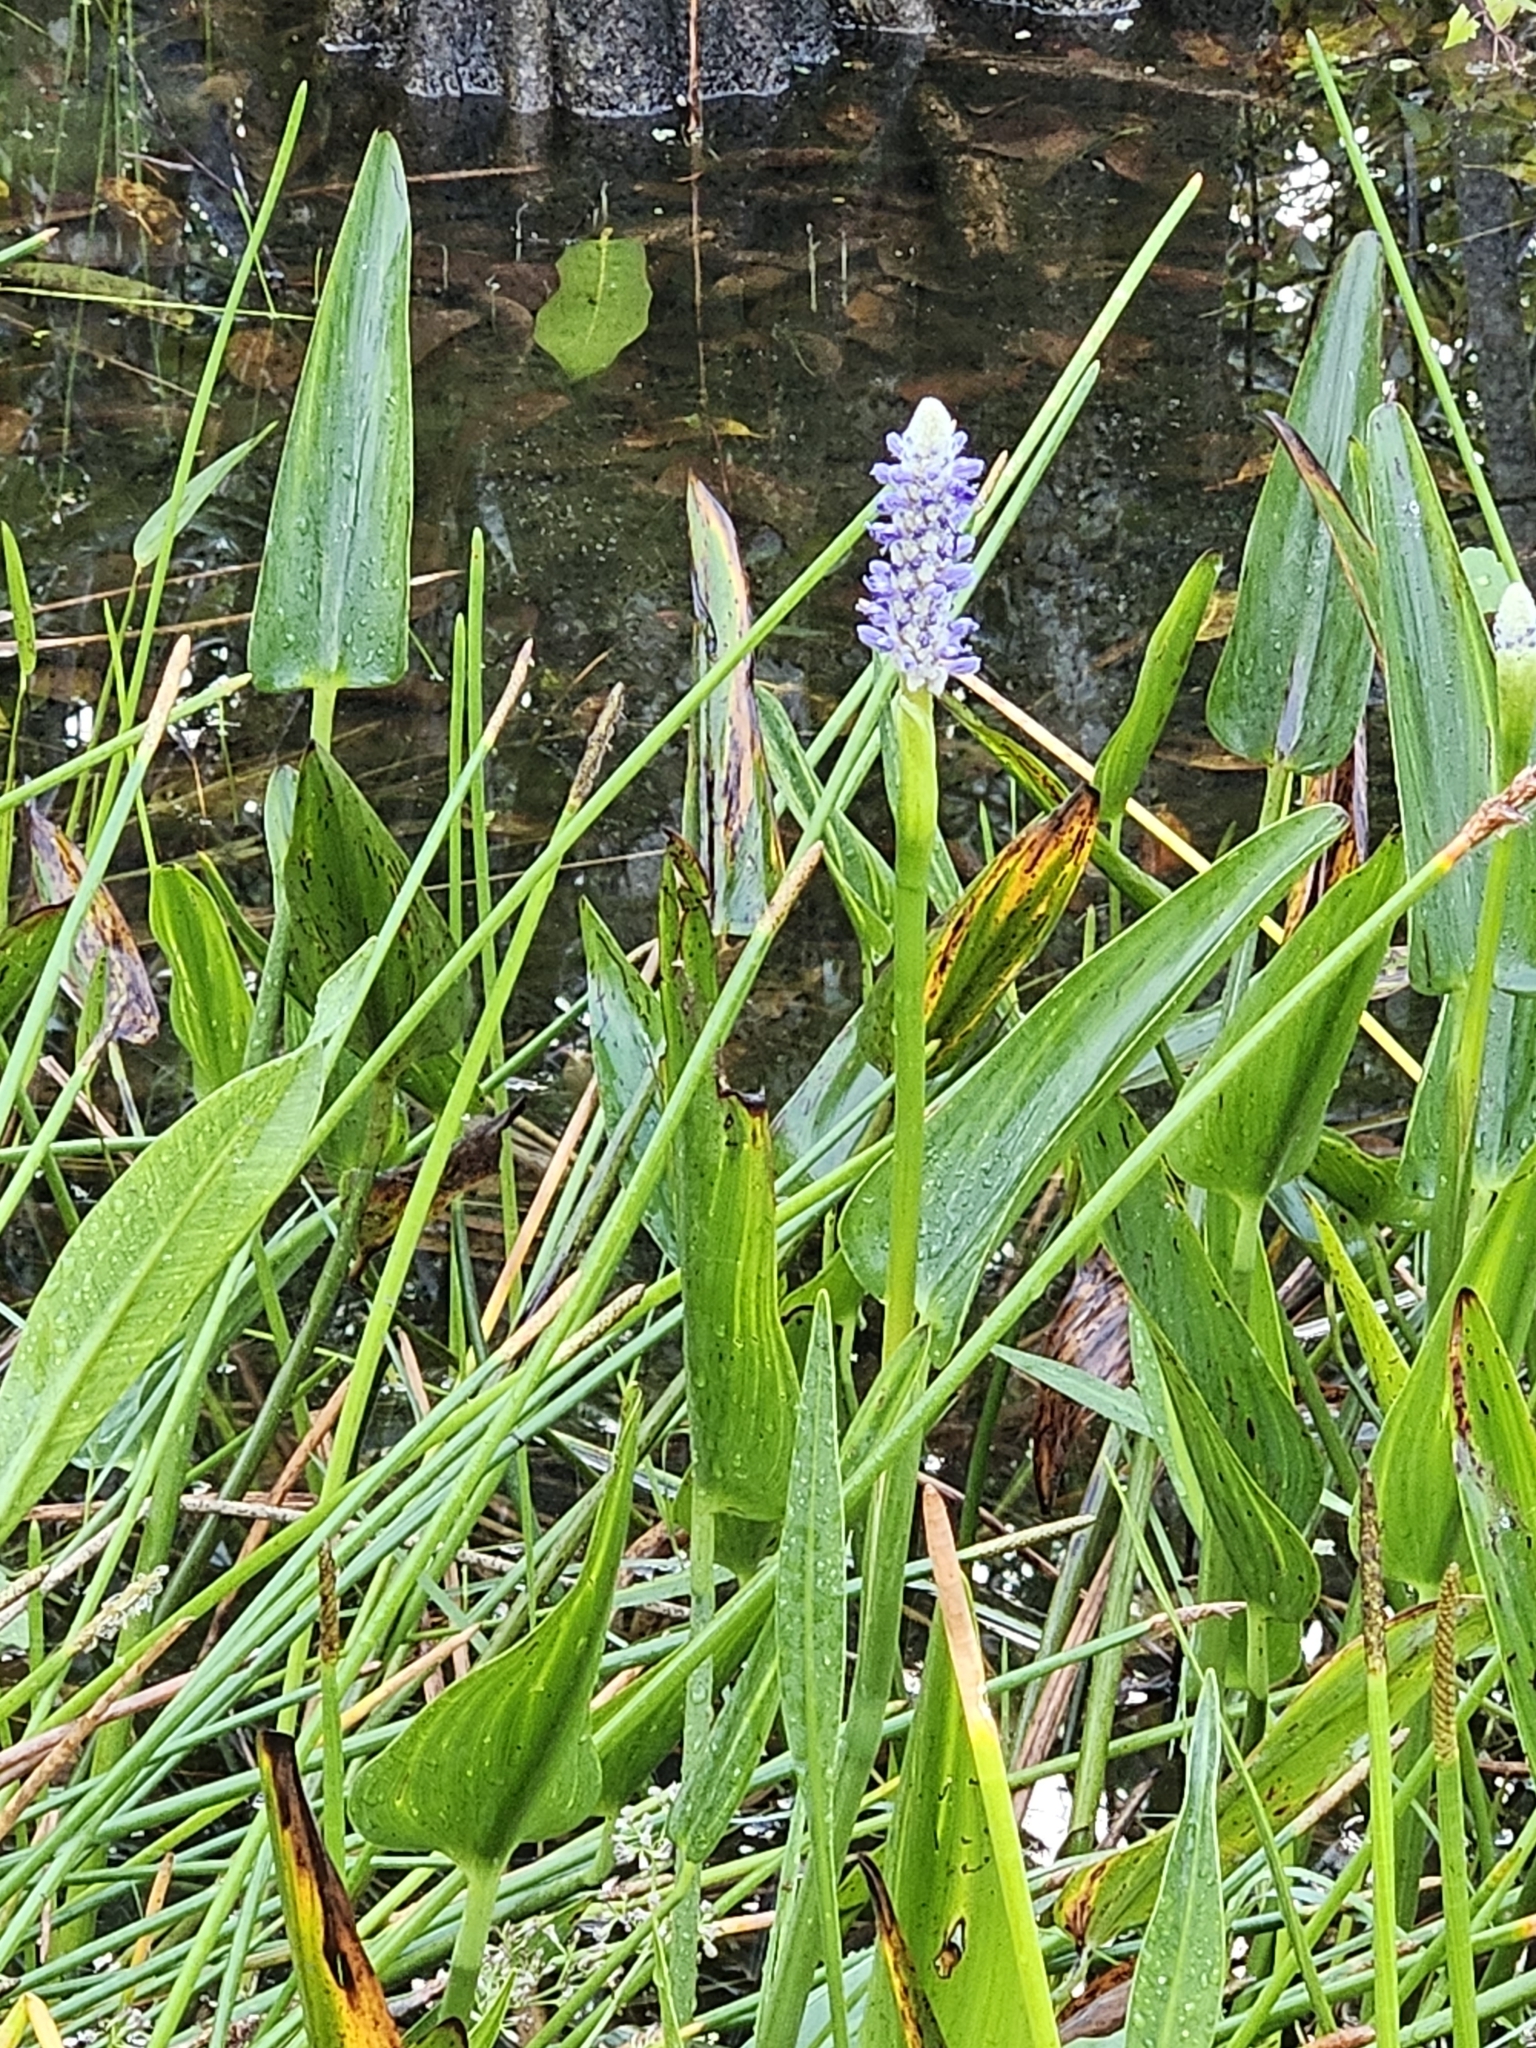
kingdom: Plantae
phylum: Tracheophyta
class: Liliopsida
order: Commelinales
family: Pontederiaceae
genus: Pontederia
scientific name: Pontederia cordata
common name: Pickerelweed
